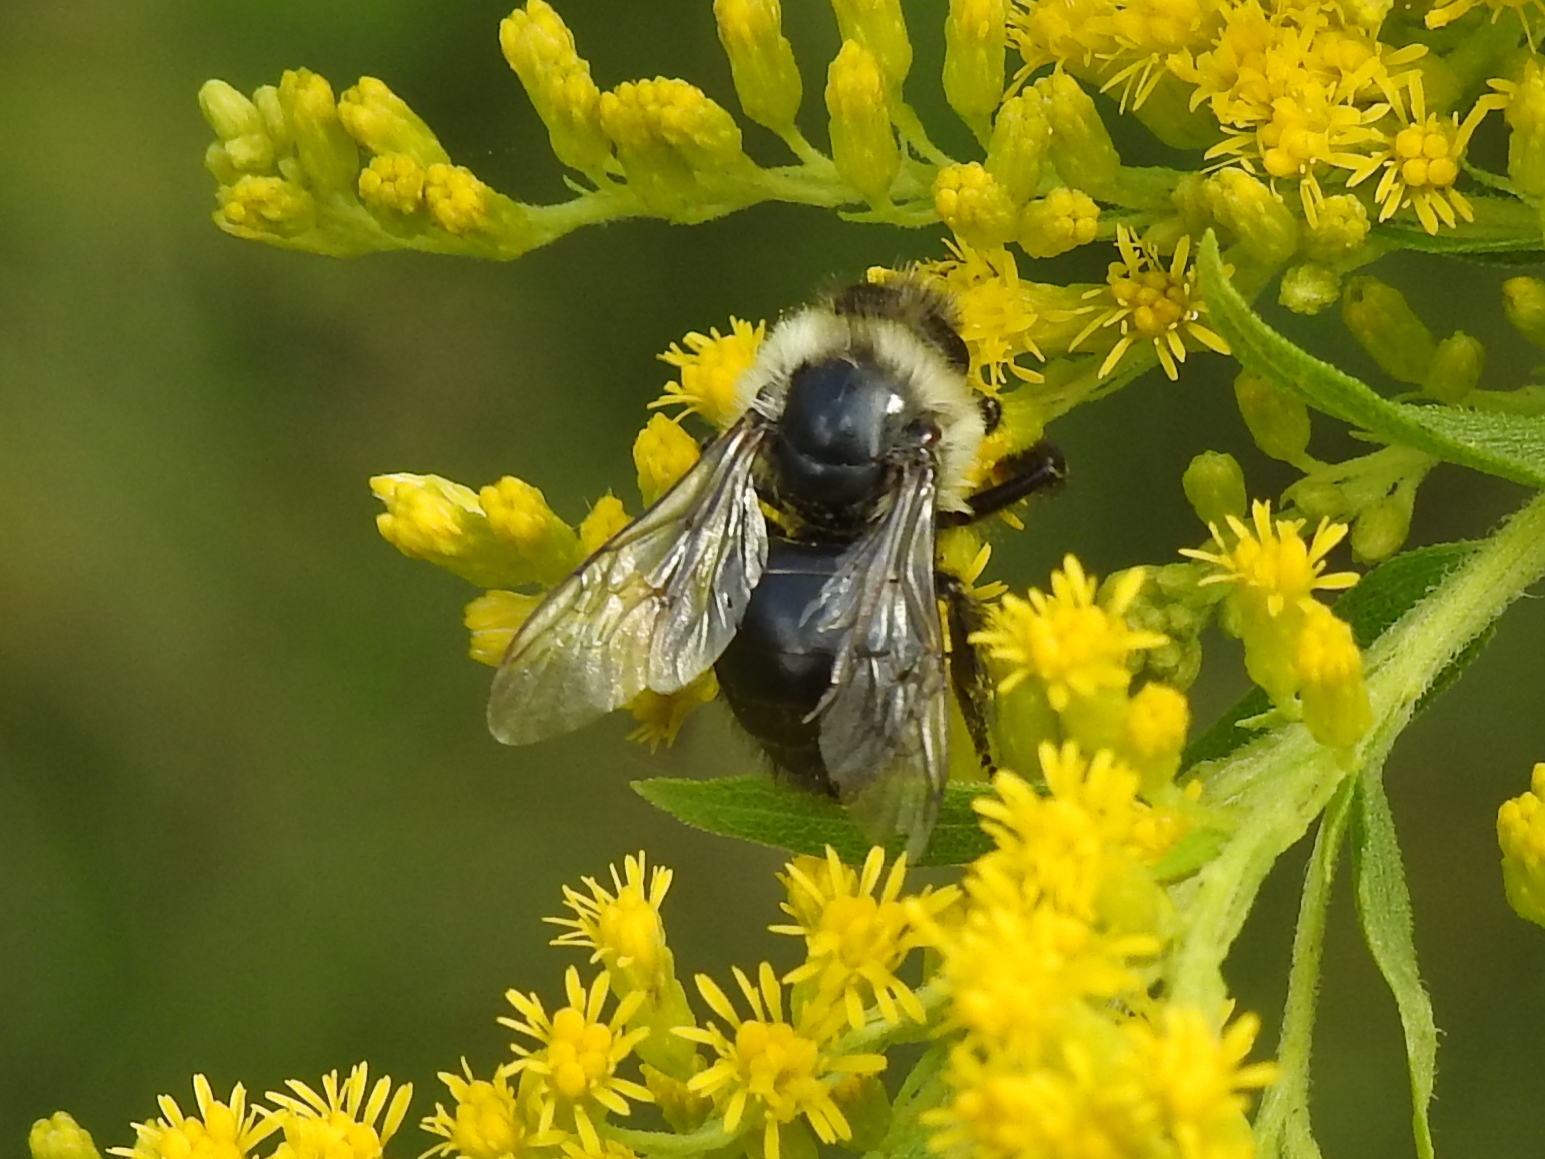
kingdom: Animalia
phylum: Arthropoda
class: Insecta
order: Hymenoptera
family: Apidae
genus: Bombus
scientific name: Bombus impatiens
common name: Common eastern bumble bee
